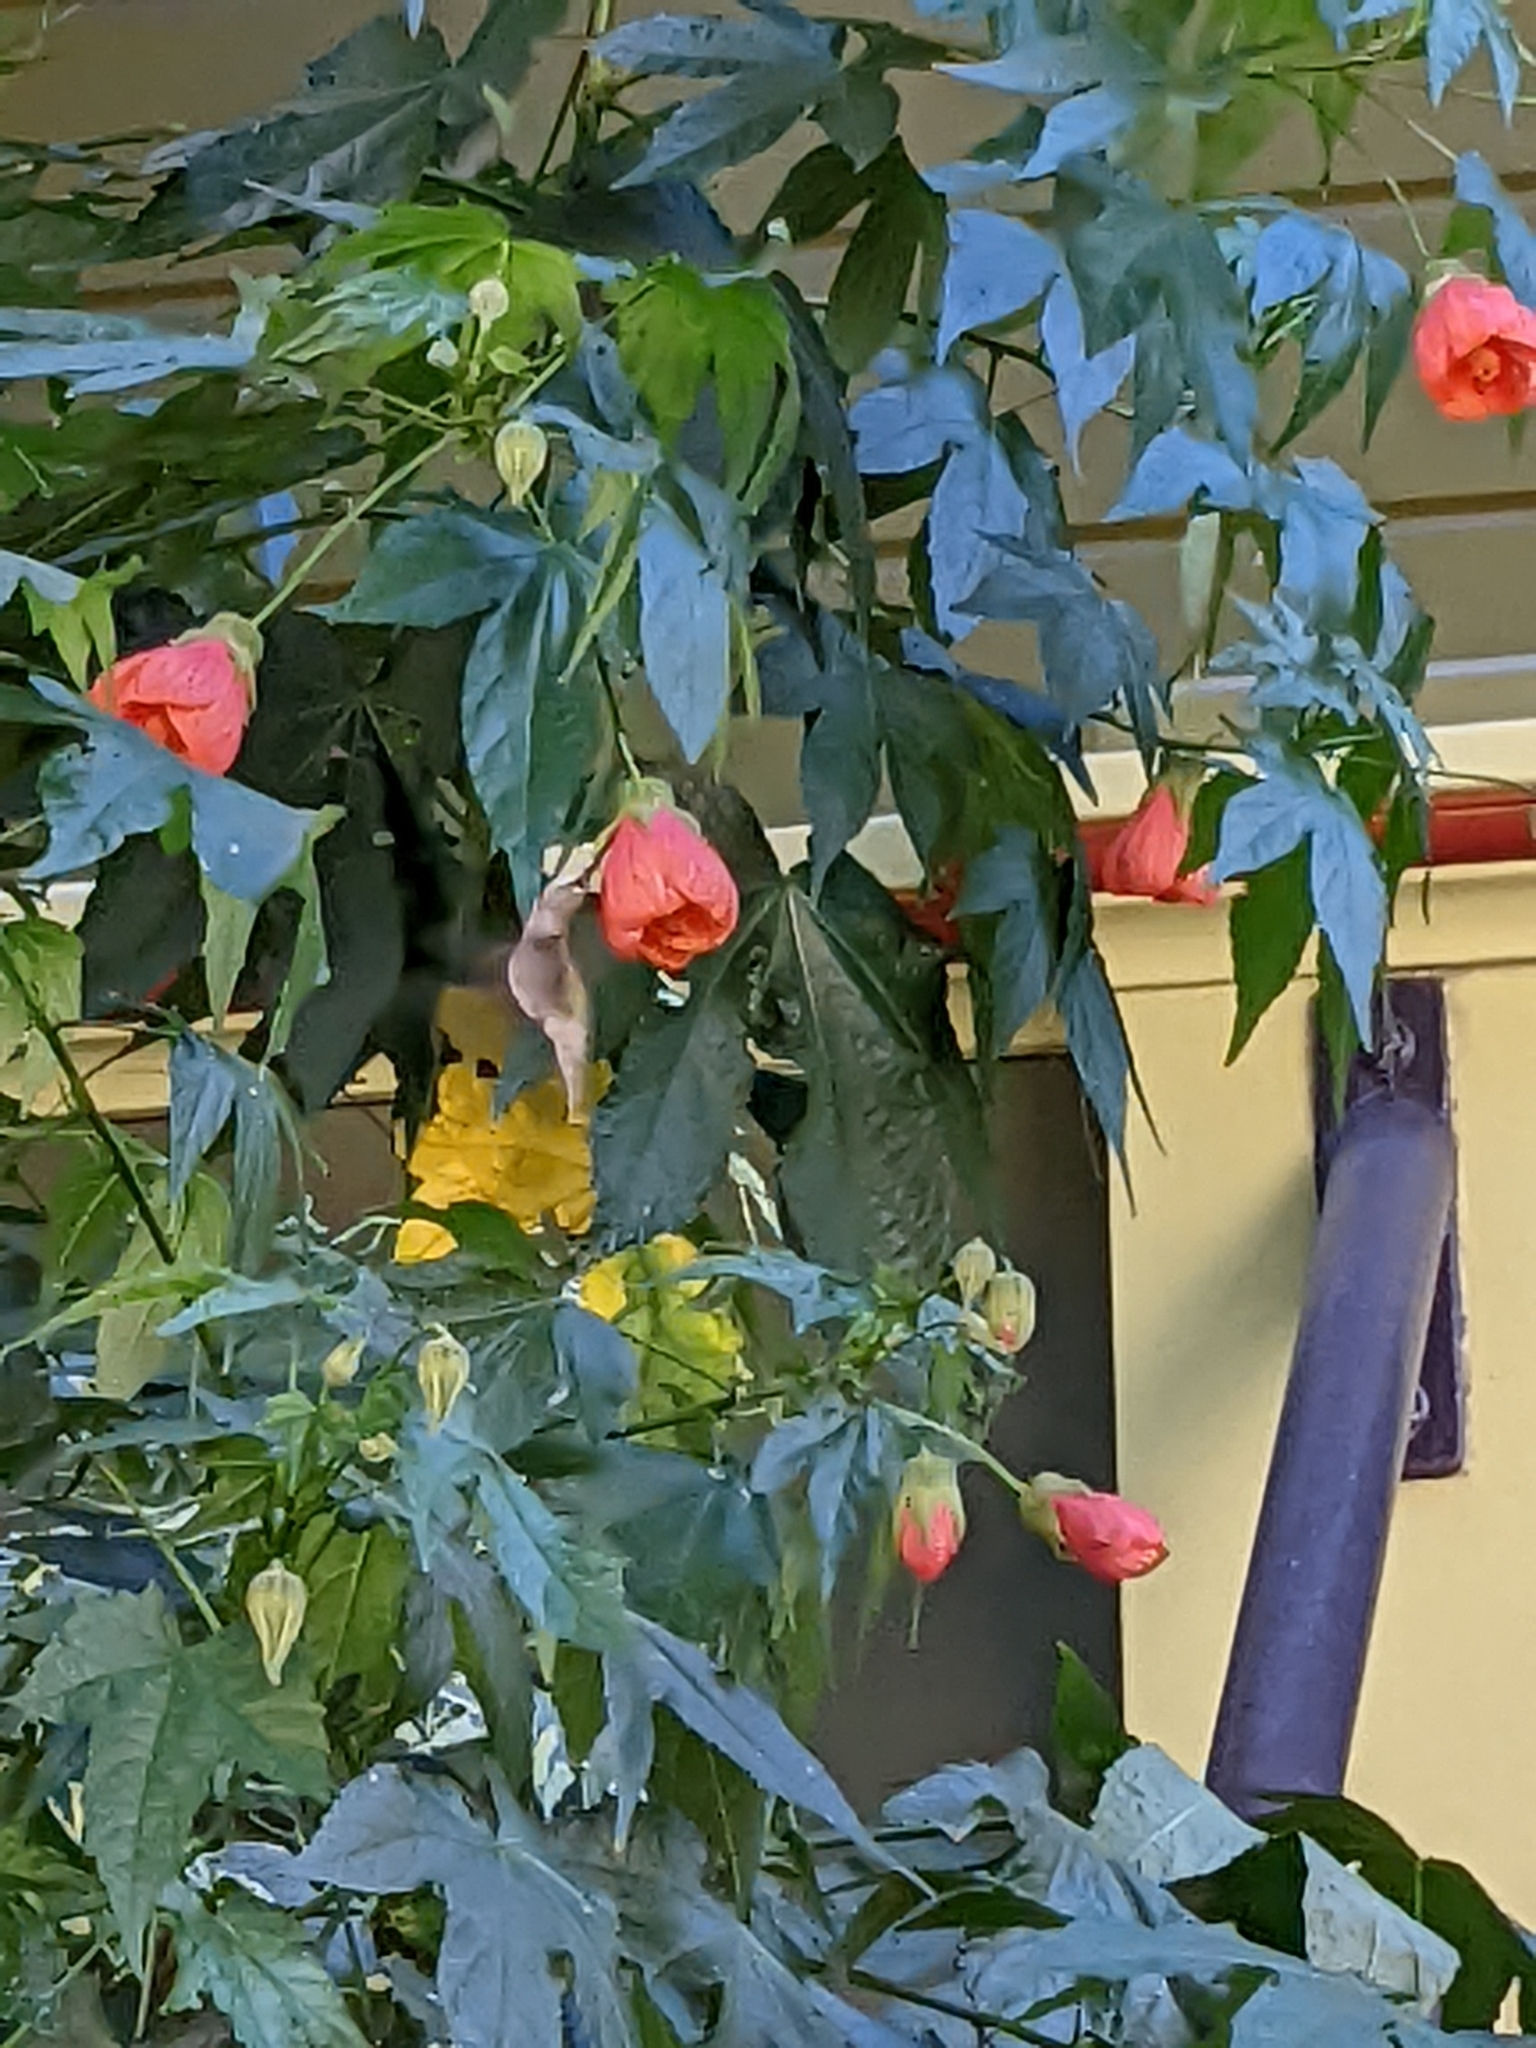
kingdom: Animalia
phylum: Chordata
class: Aves
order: Apodiformes
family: Trochilidae
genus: Calypte
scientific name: Calypte anna
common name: Anna's hummingbird
